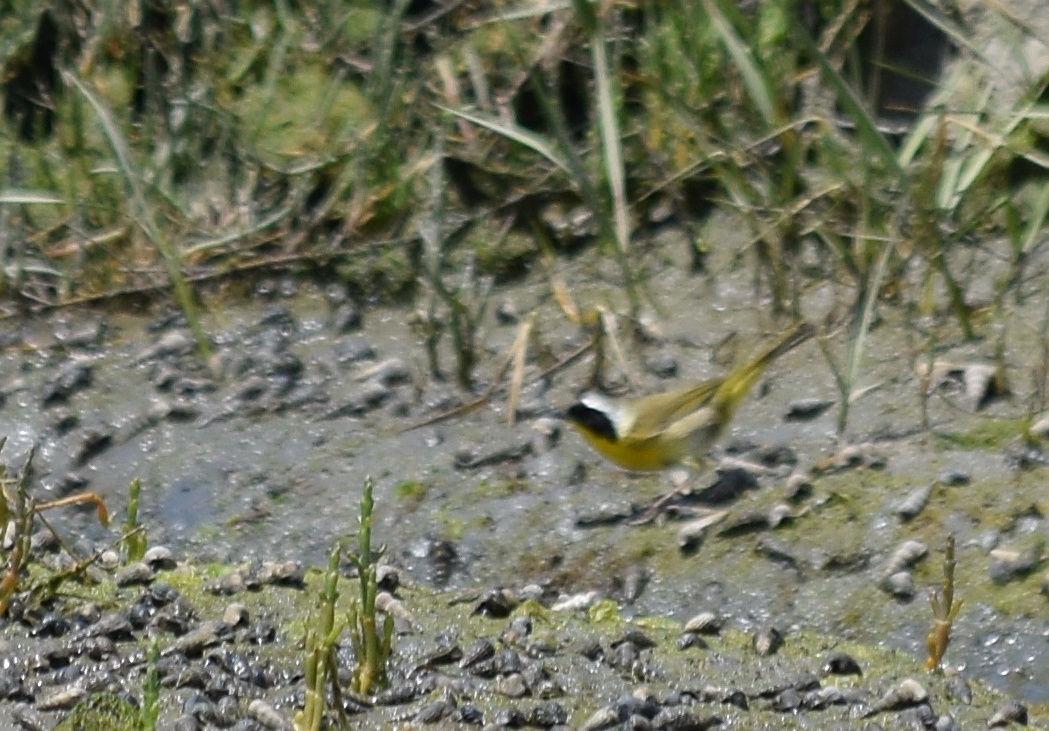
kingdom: Animalia
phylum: Chordata
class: Aves
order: Passeriformes
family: Parulidae
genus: Geothlypis
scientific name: Geothlypis trichas
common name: Common yellowthroat
